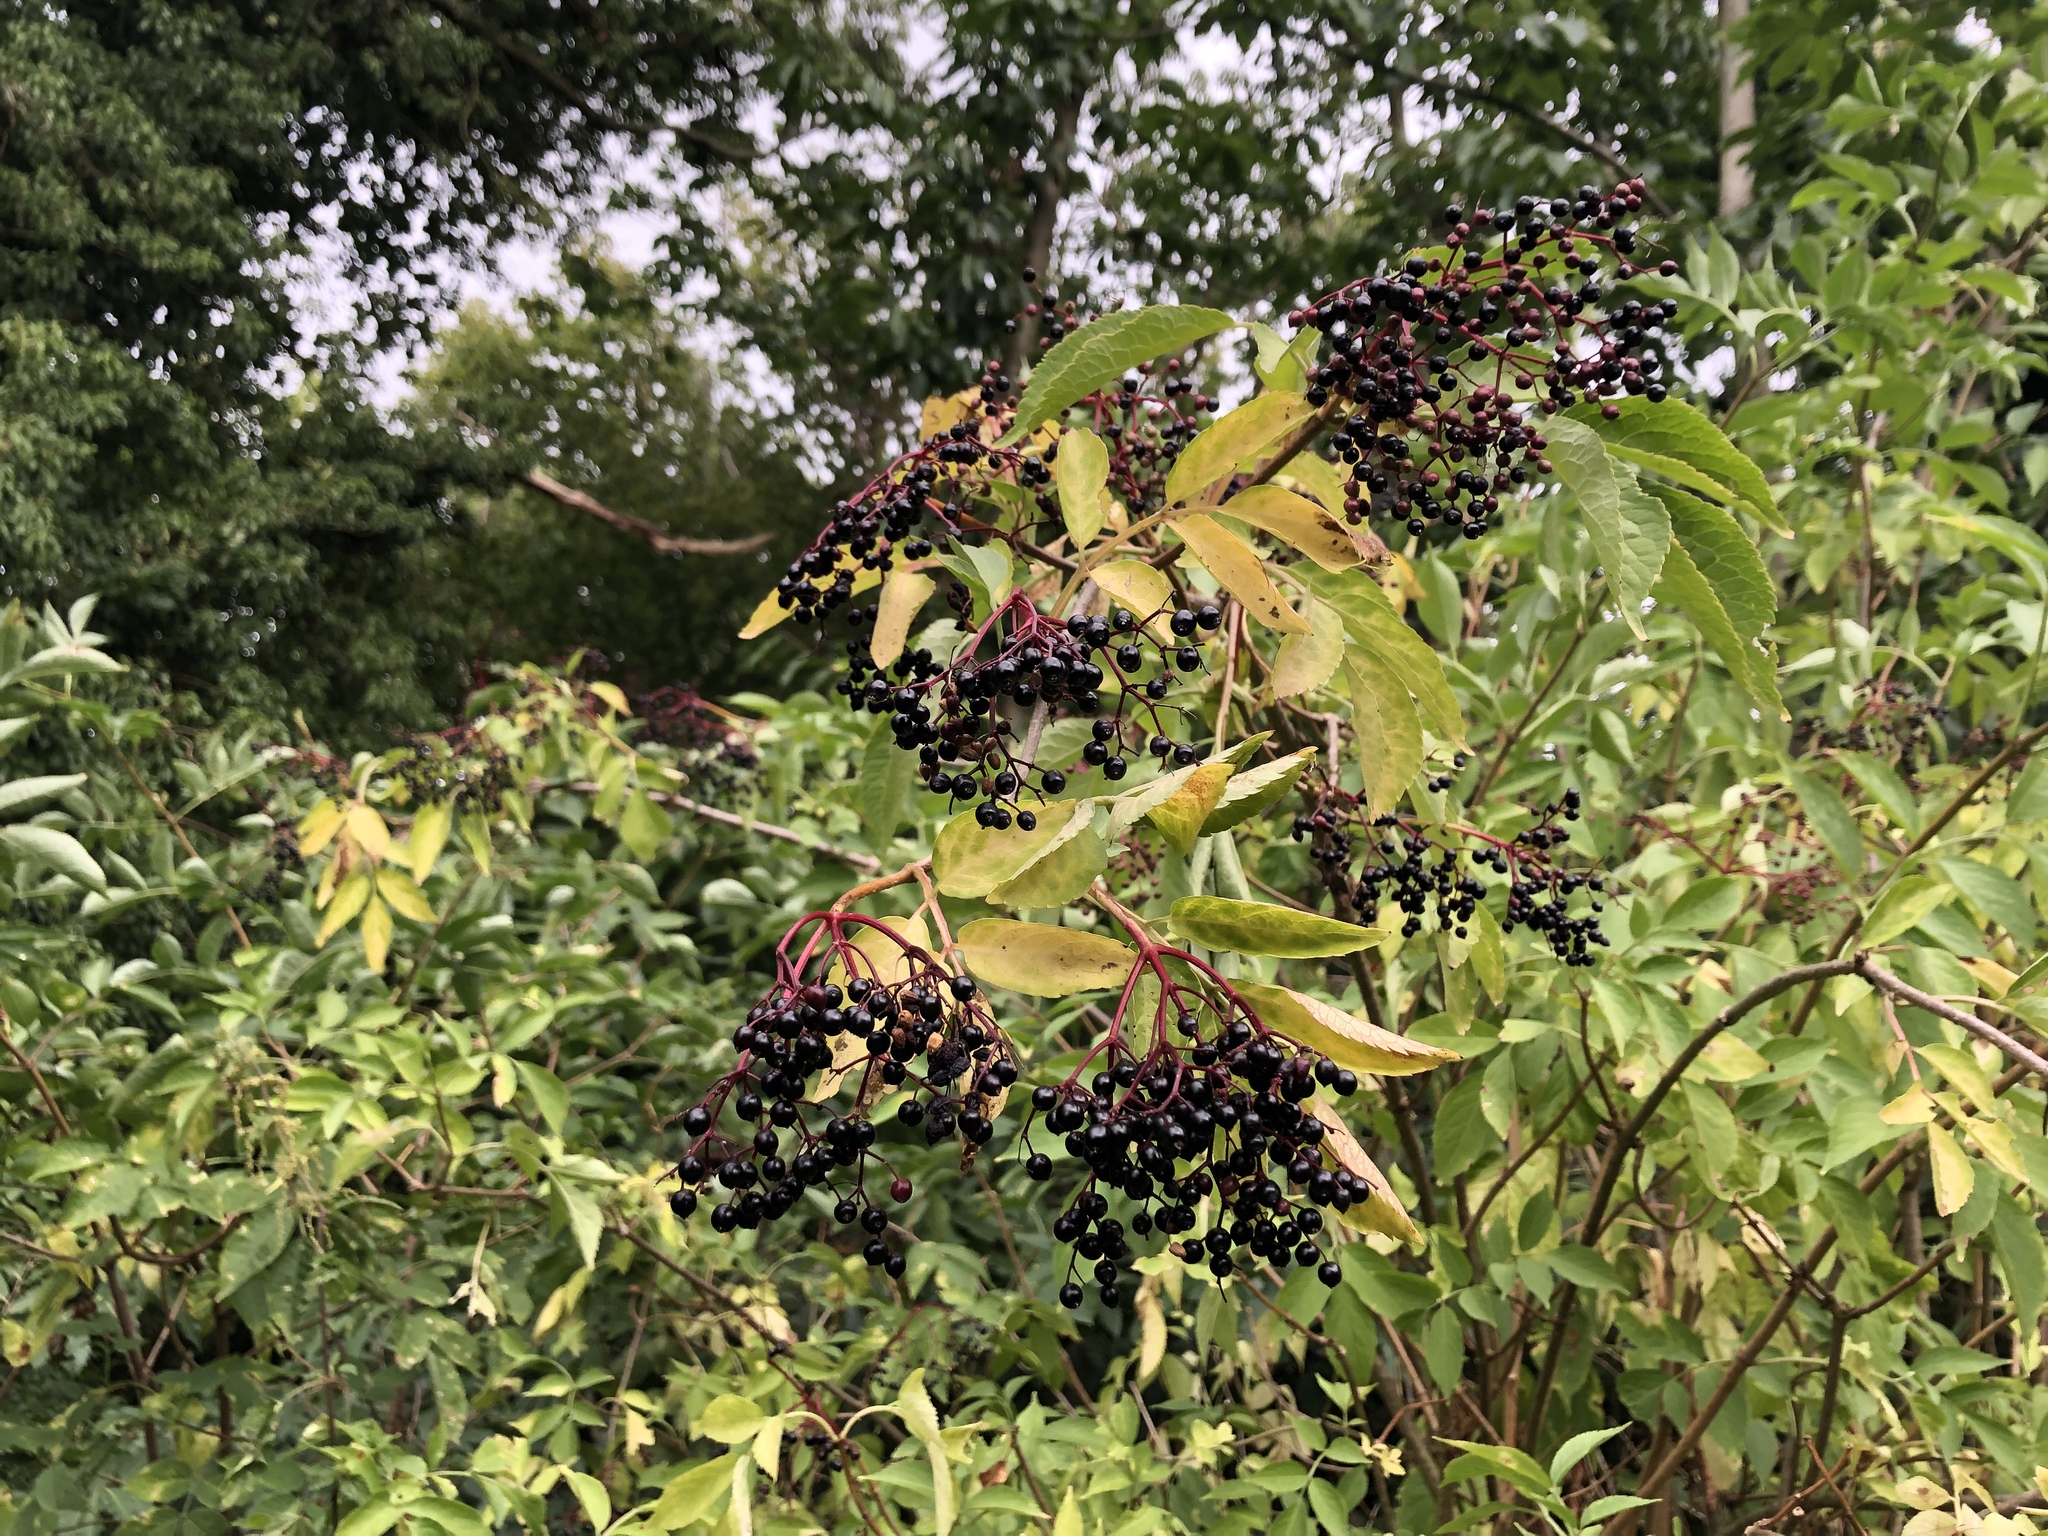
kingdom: Plantae
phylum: Tracheophyta
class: Magnoliopsida
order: Dipsacales
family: Viburnaceae
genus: Sambucus
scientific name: Sambucus nigra
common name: Elder
